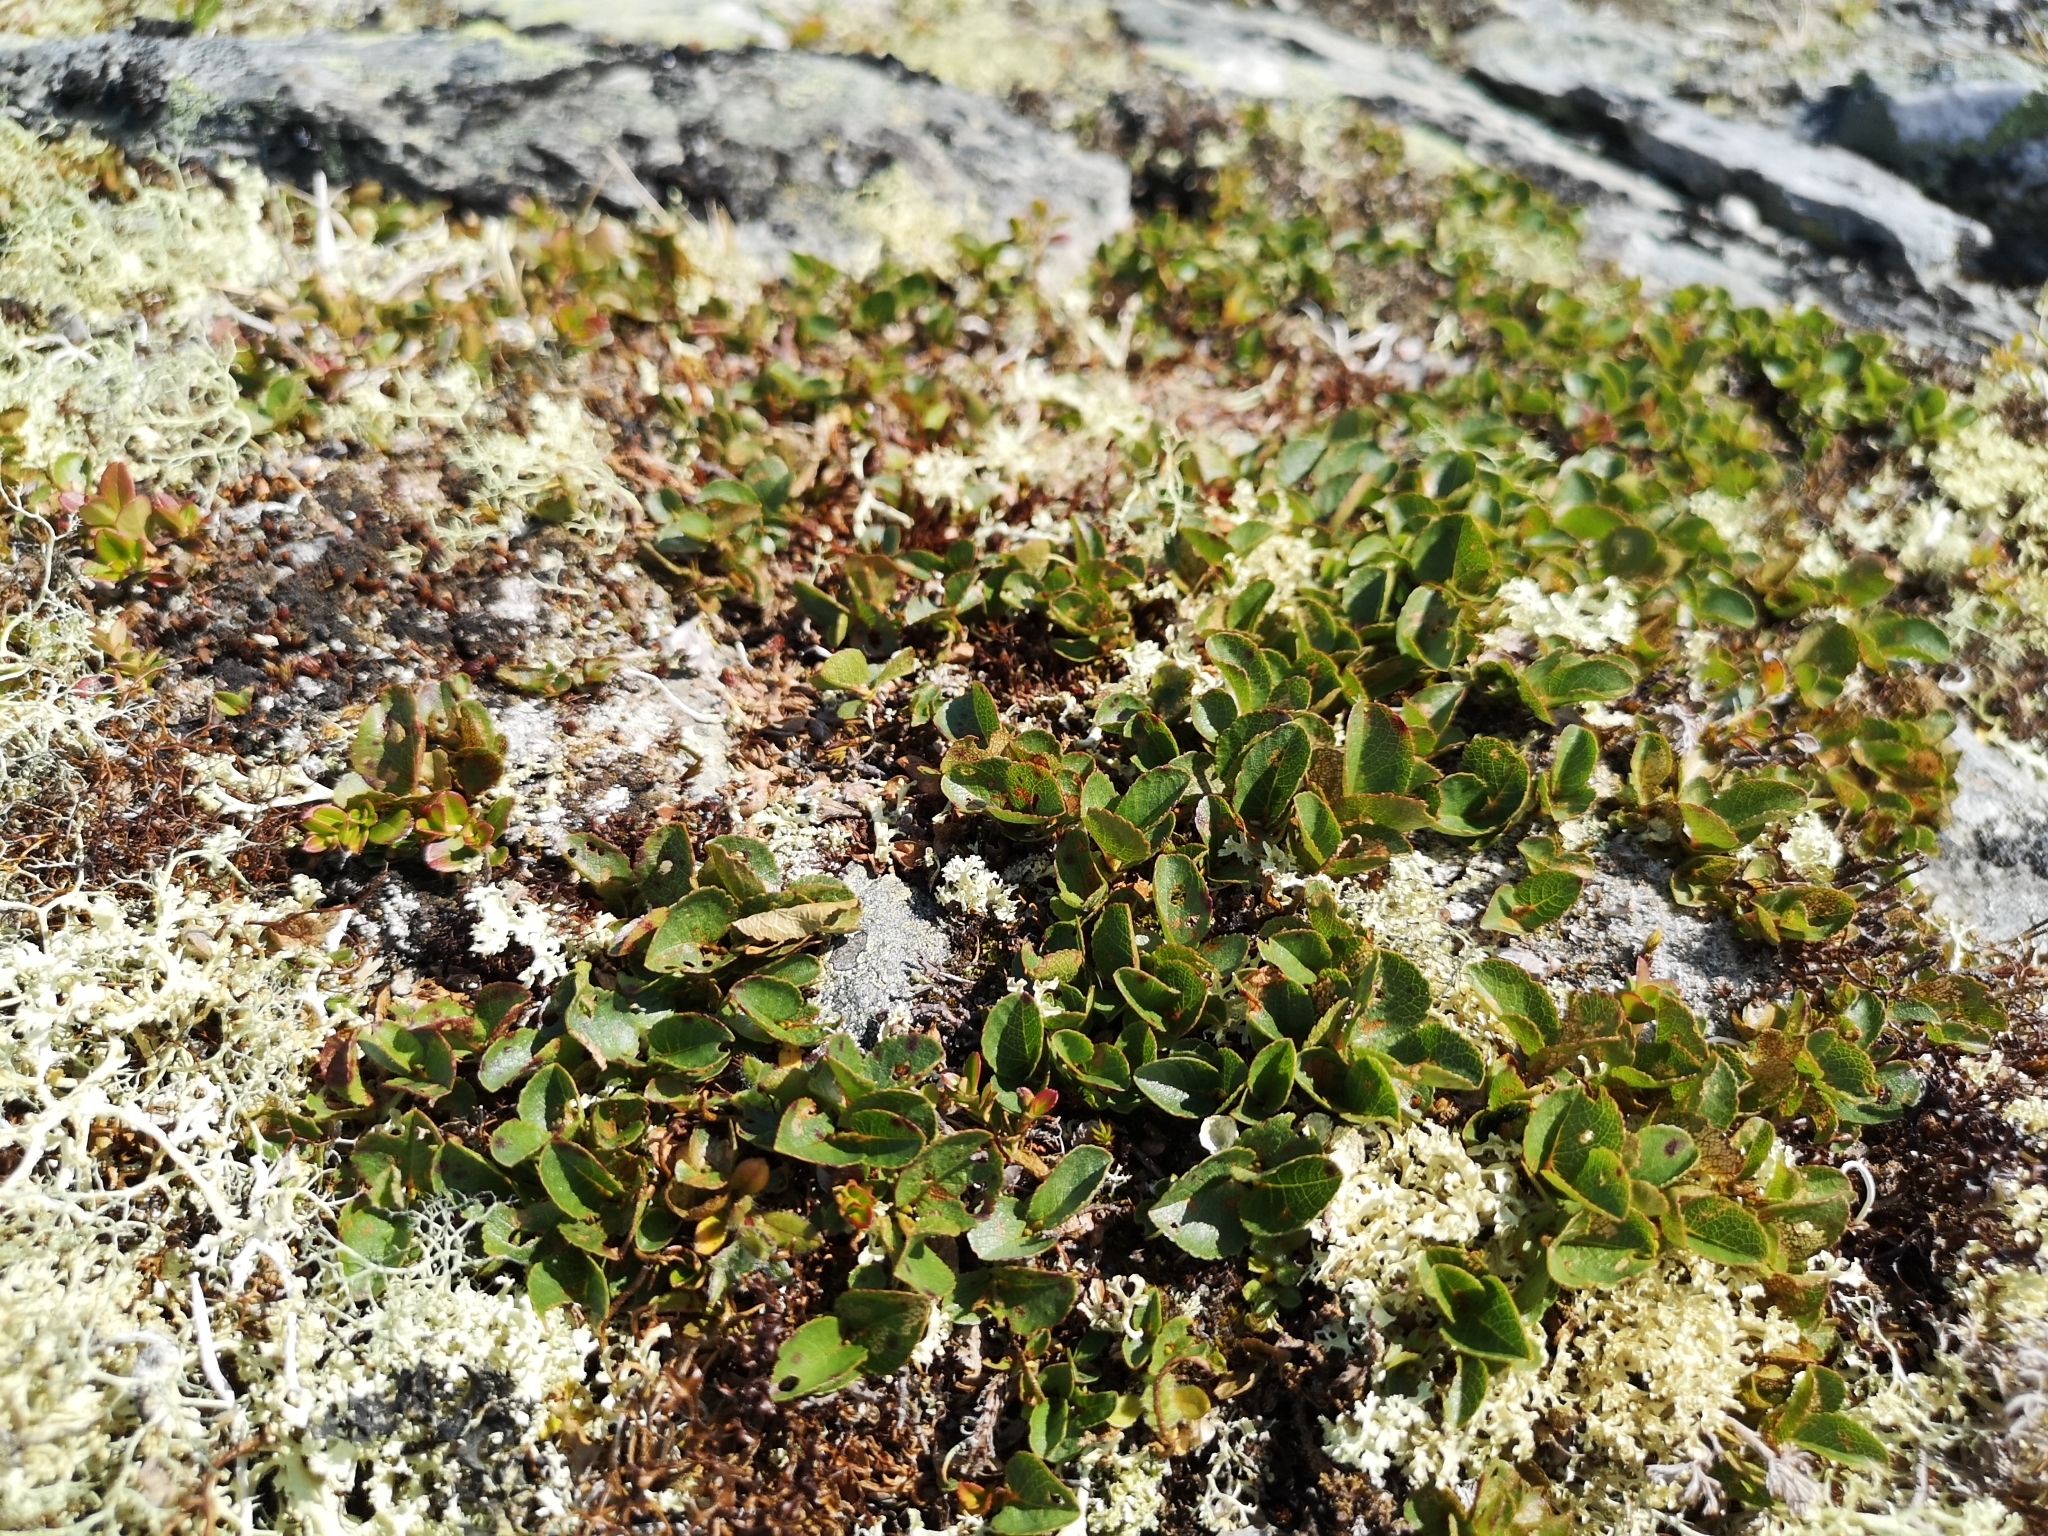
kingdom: Plantae
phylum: Tracheophyta
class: Magnoliopsida
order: Malpighiales
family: Salicaceae
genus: Salix
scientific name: Salix herbacea
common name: Dwarf willow
